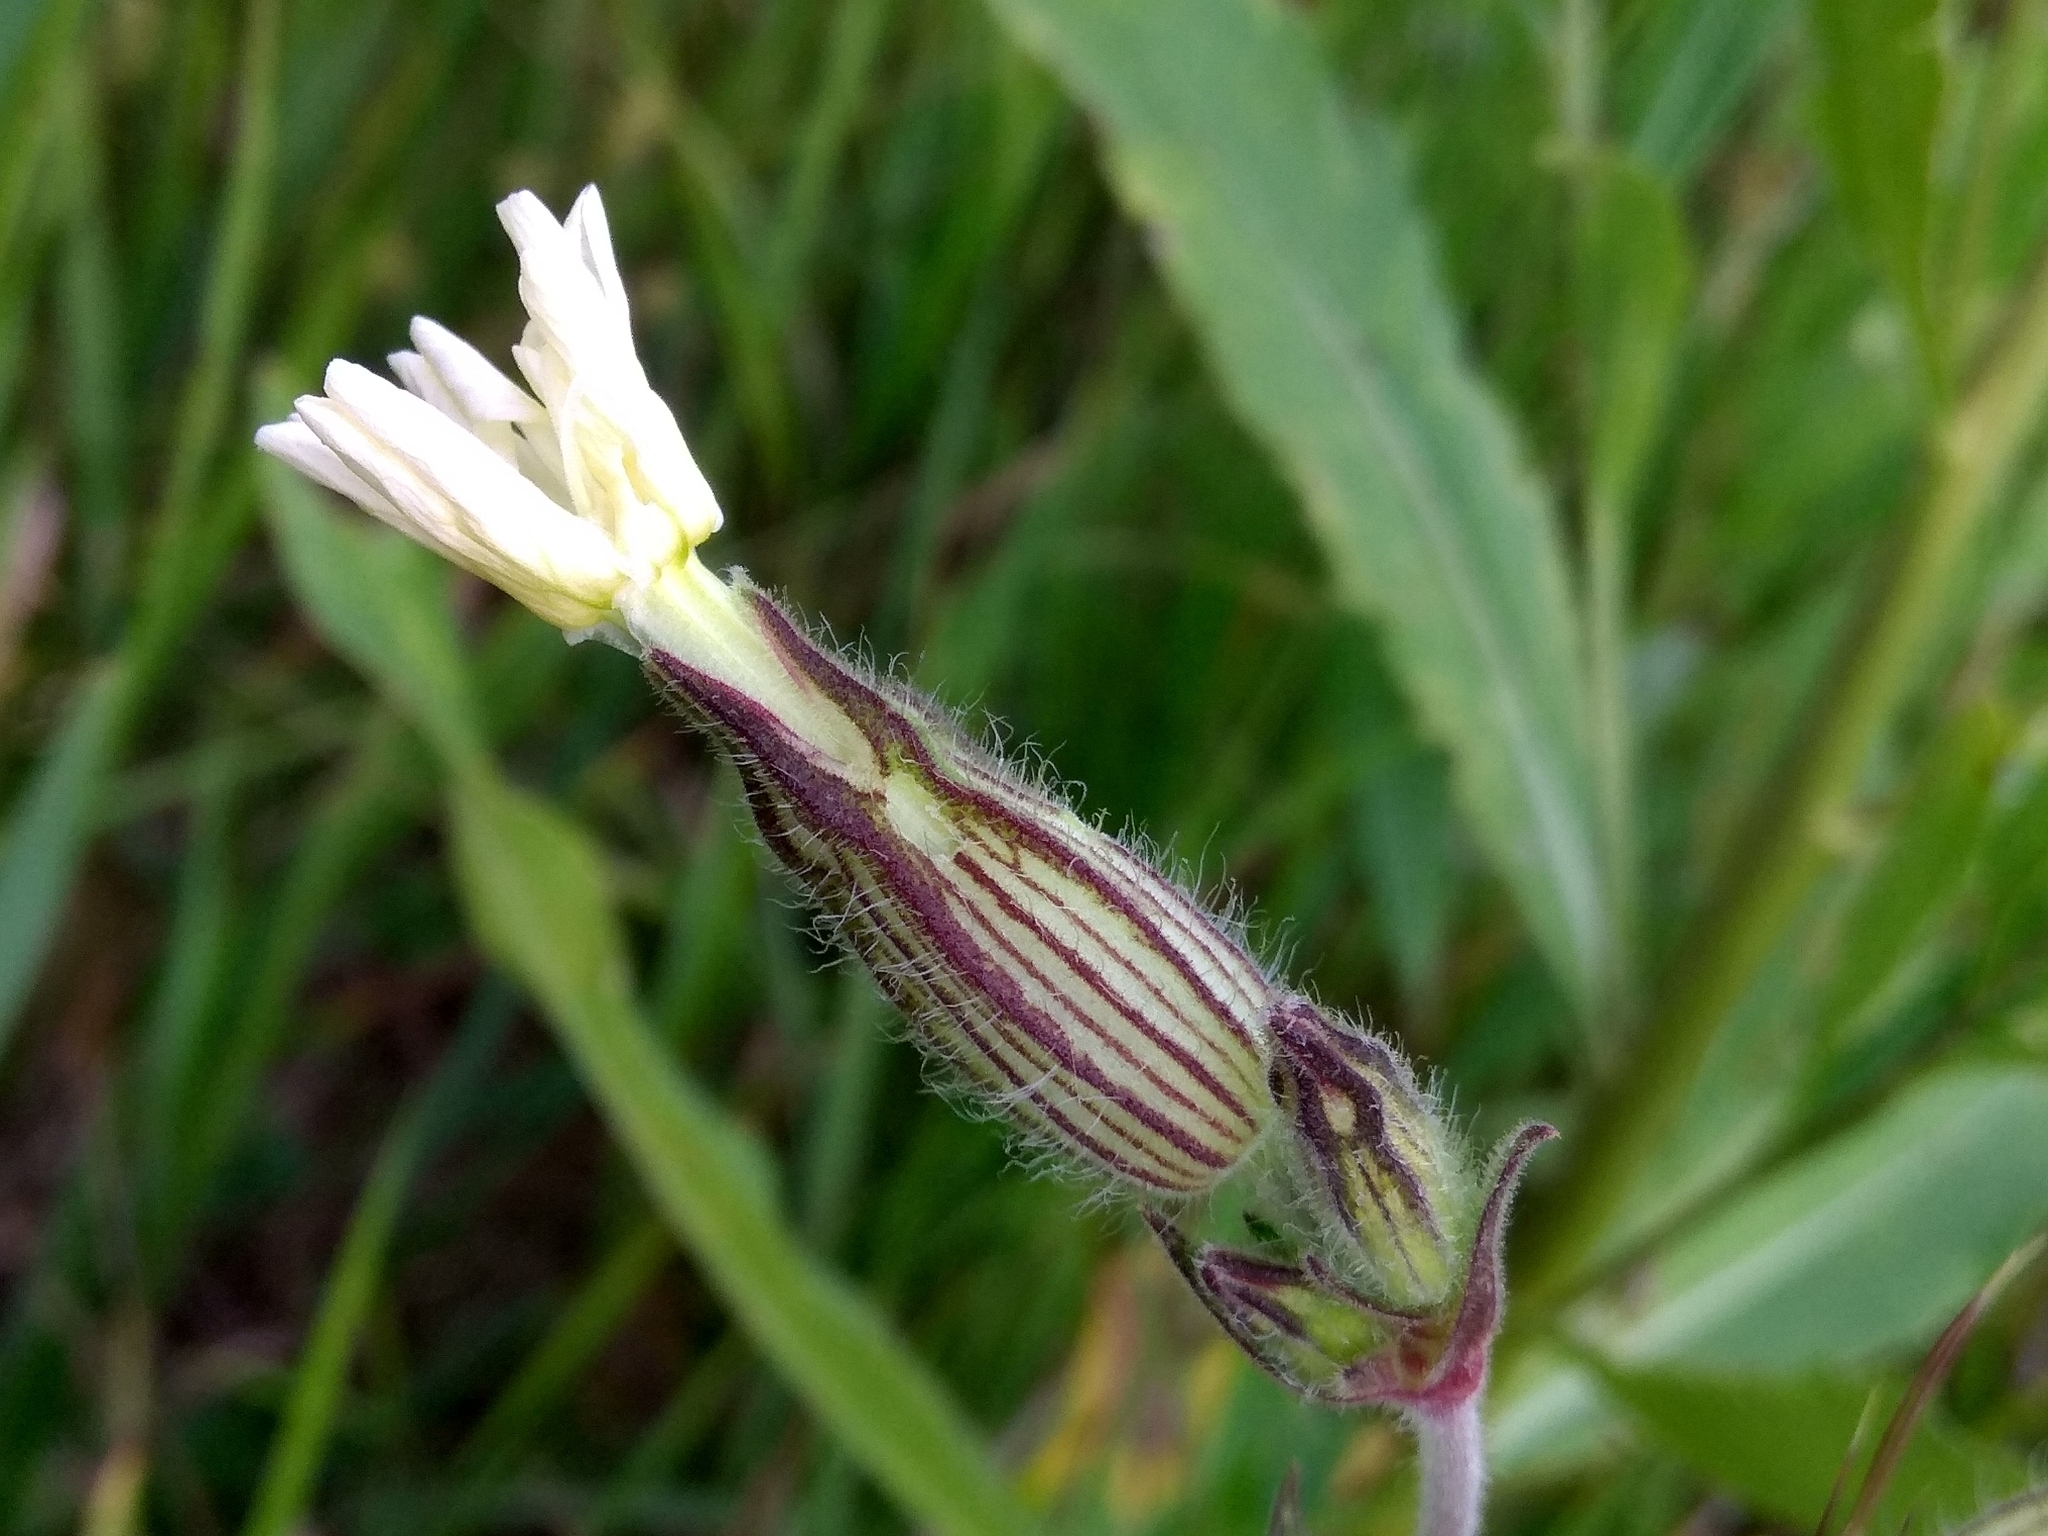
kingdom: Plantae
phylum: Tracheophyta
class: Magnoliopsida
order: Caryophyllales
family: Caryophyllaceae
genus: Silene
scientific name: Silene latifolia
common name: White campion
